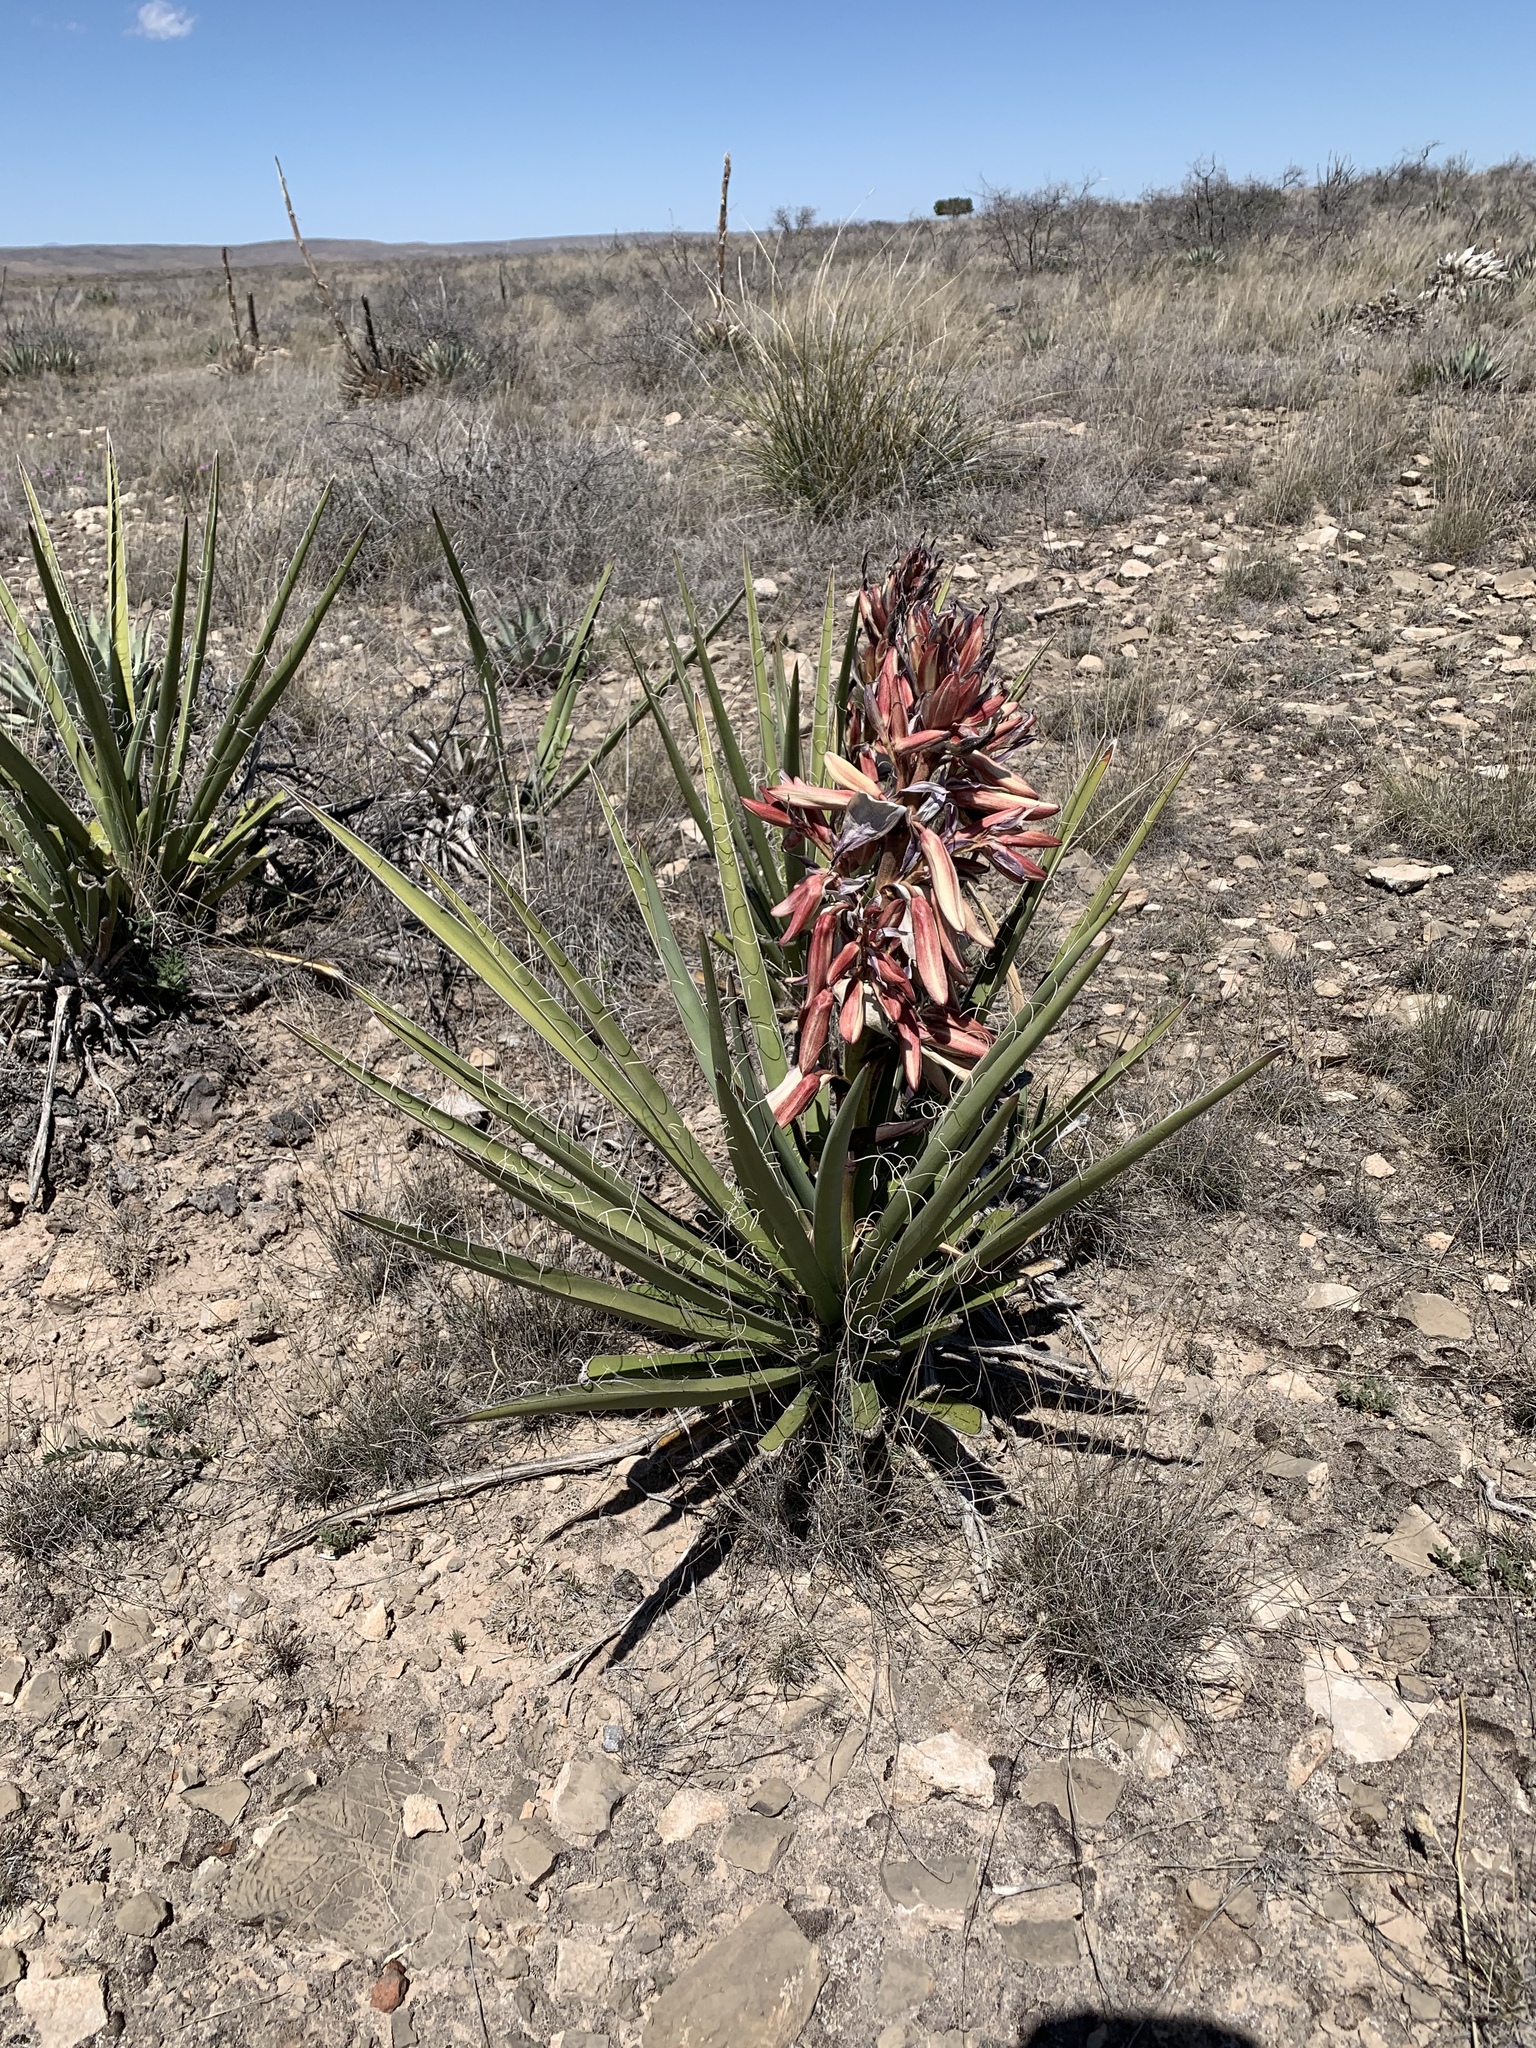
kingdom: Plantae
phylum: Tracheophyta
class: Liliopsida
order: Asparagales
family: Asparagaceae
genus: Yucca
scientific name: Yucca baccata
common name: Banana yucca
